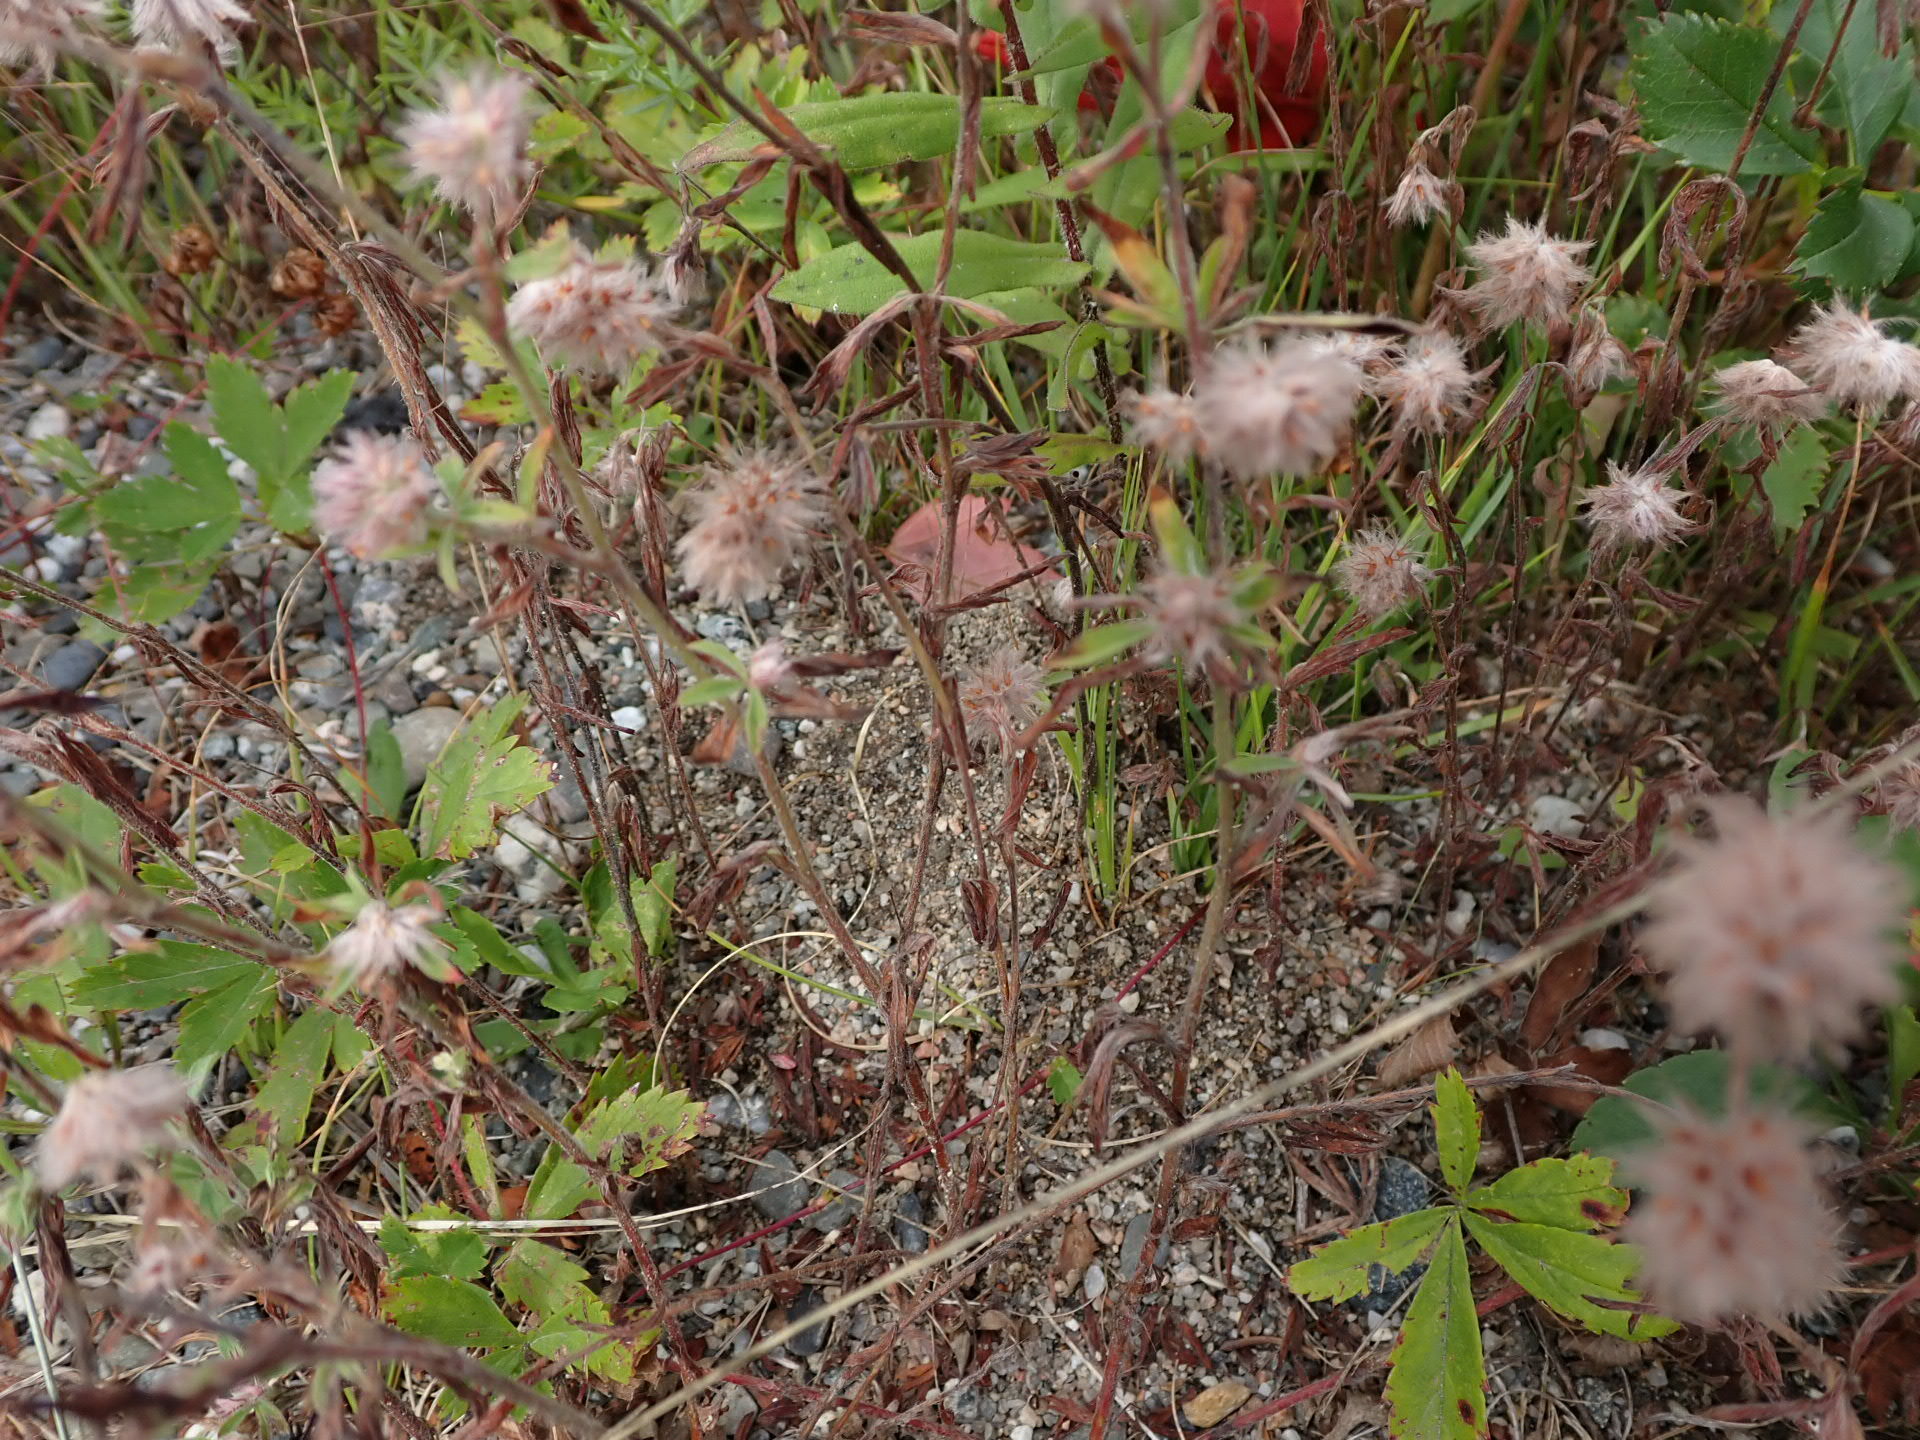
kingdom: Plantae
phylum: Tracheophyta
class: Magnoliopsida
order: Fabales
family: Fabaceae
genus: Trifolium
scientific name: Trifolium arvense
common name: Hare's-foot clover
